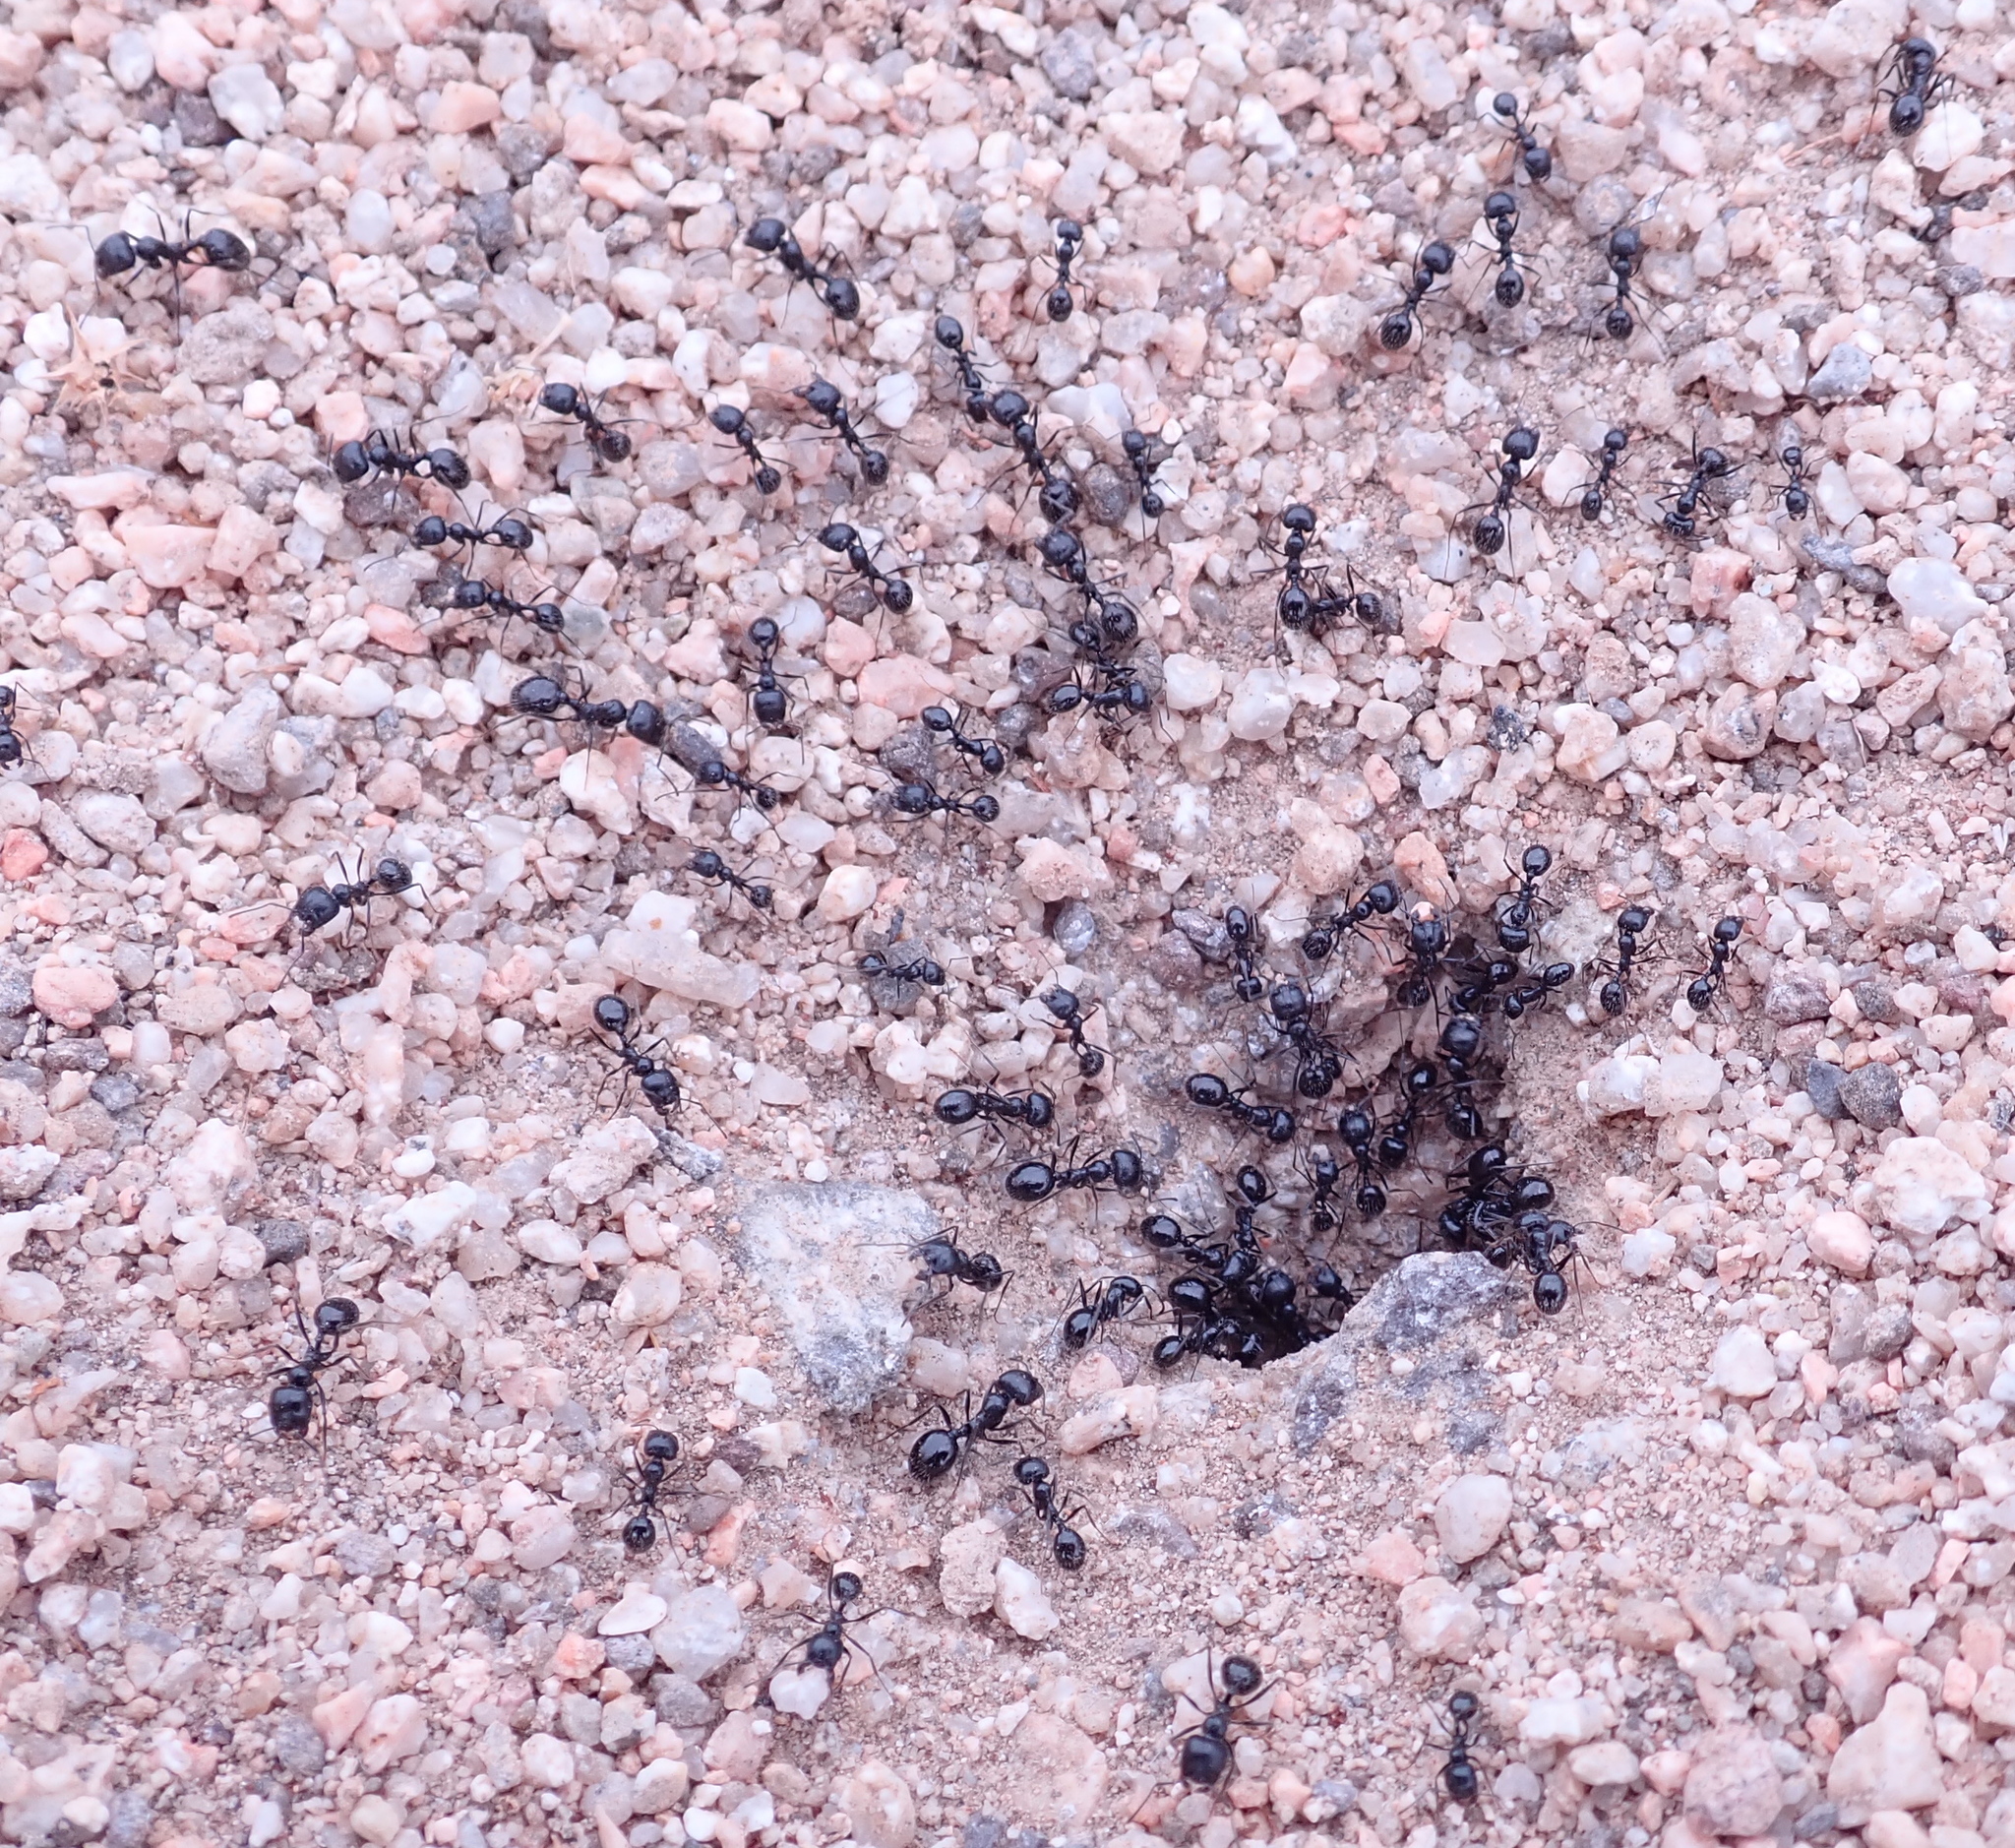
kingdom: Animalia
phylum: Arthropoda
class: Insecta
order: Hymenoptera
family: Formicidae
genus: Messor
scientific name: Messor pergandei
